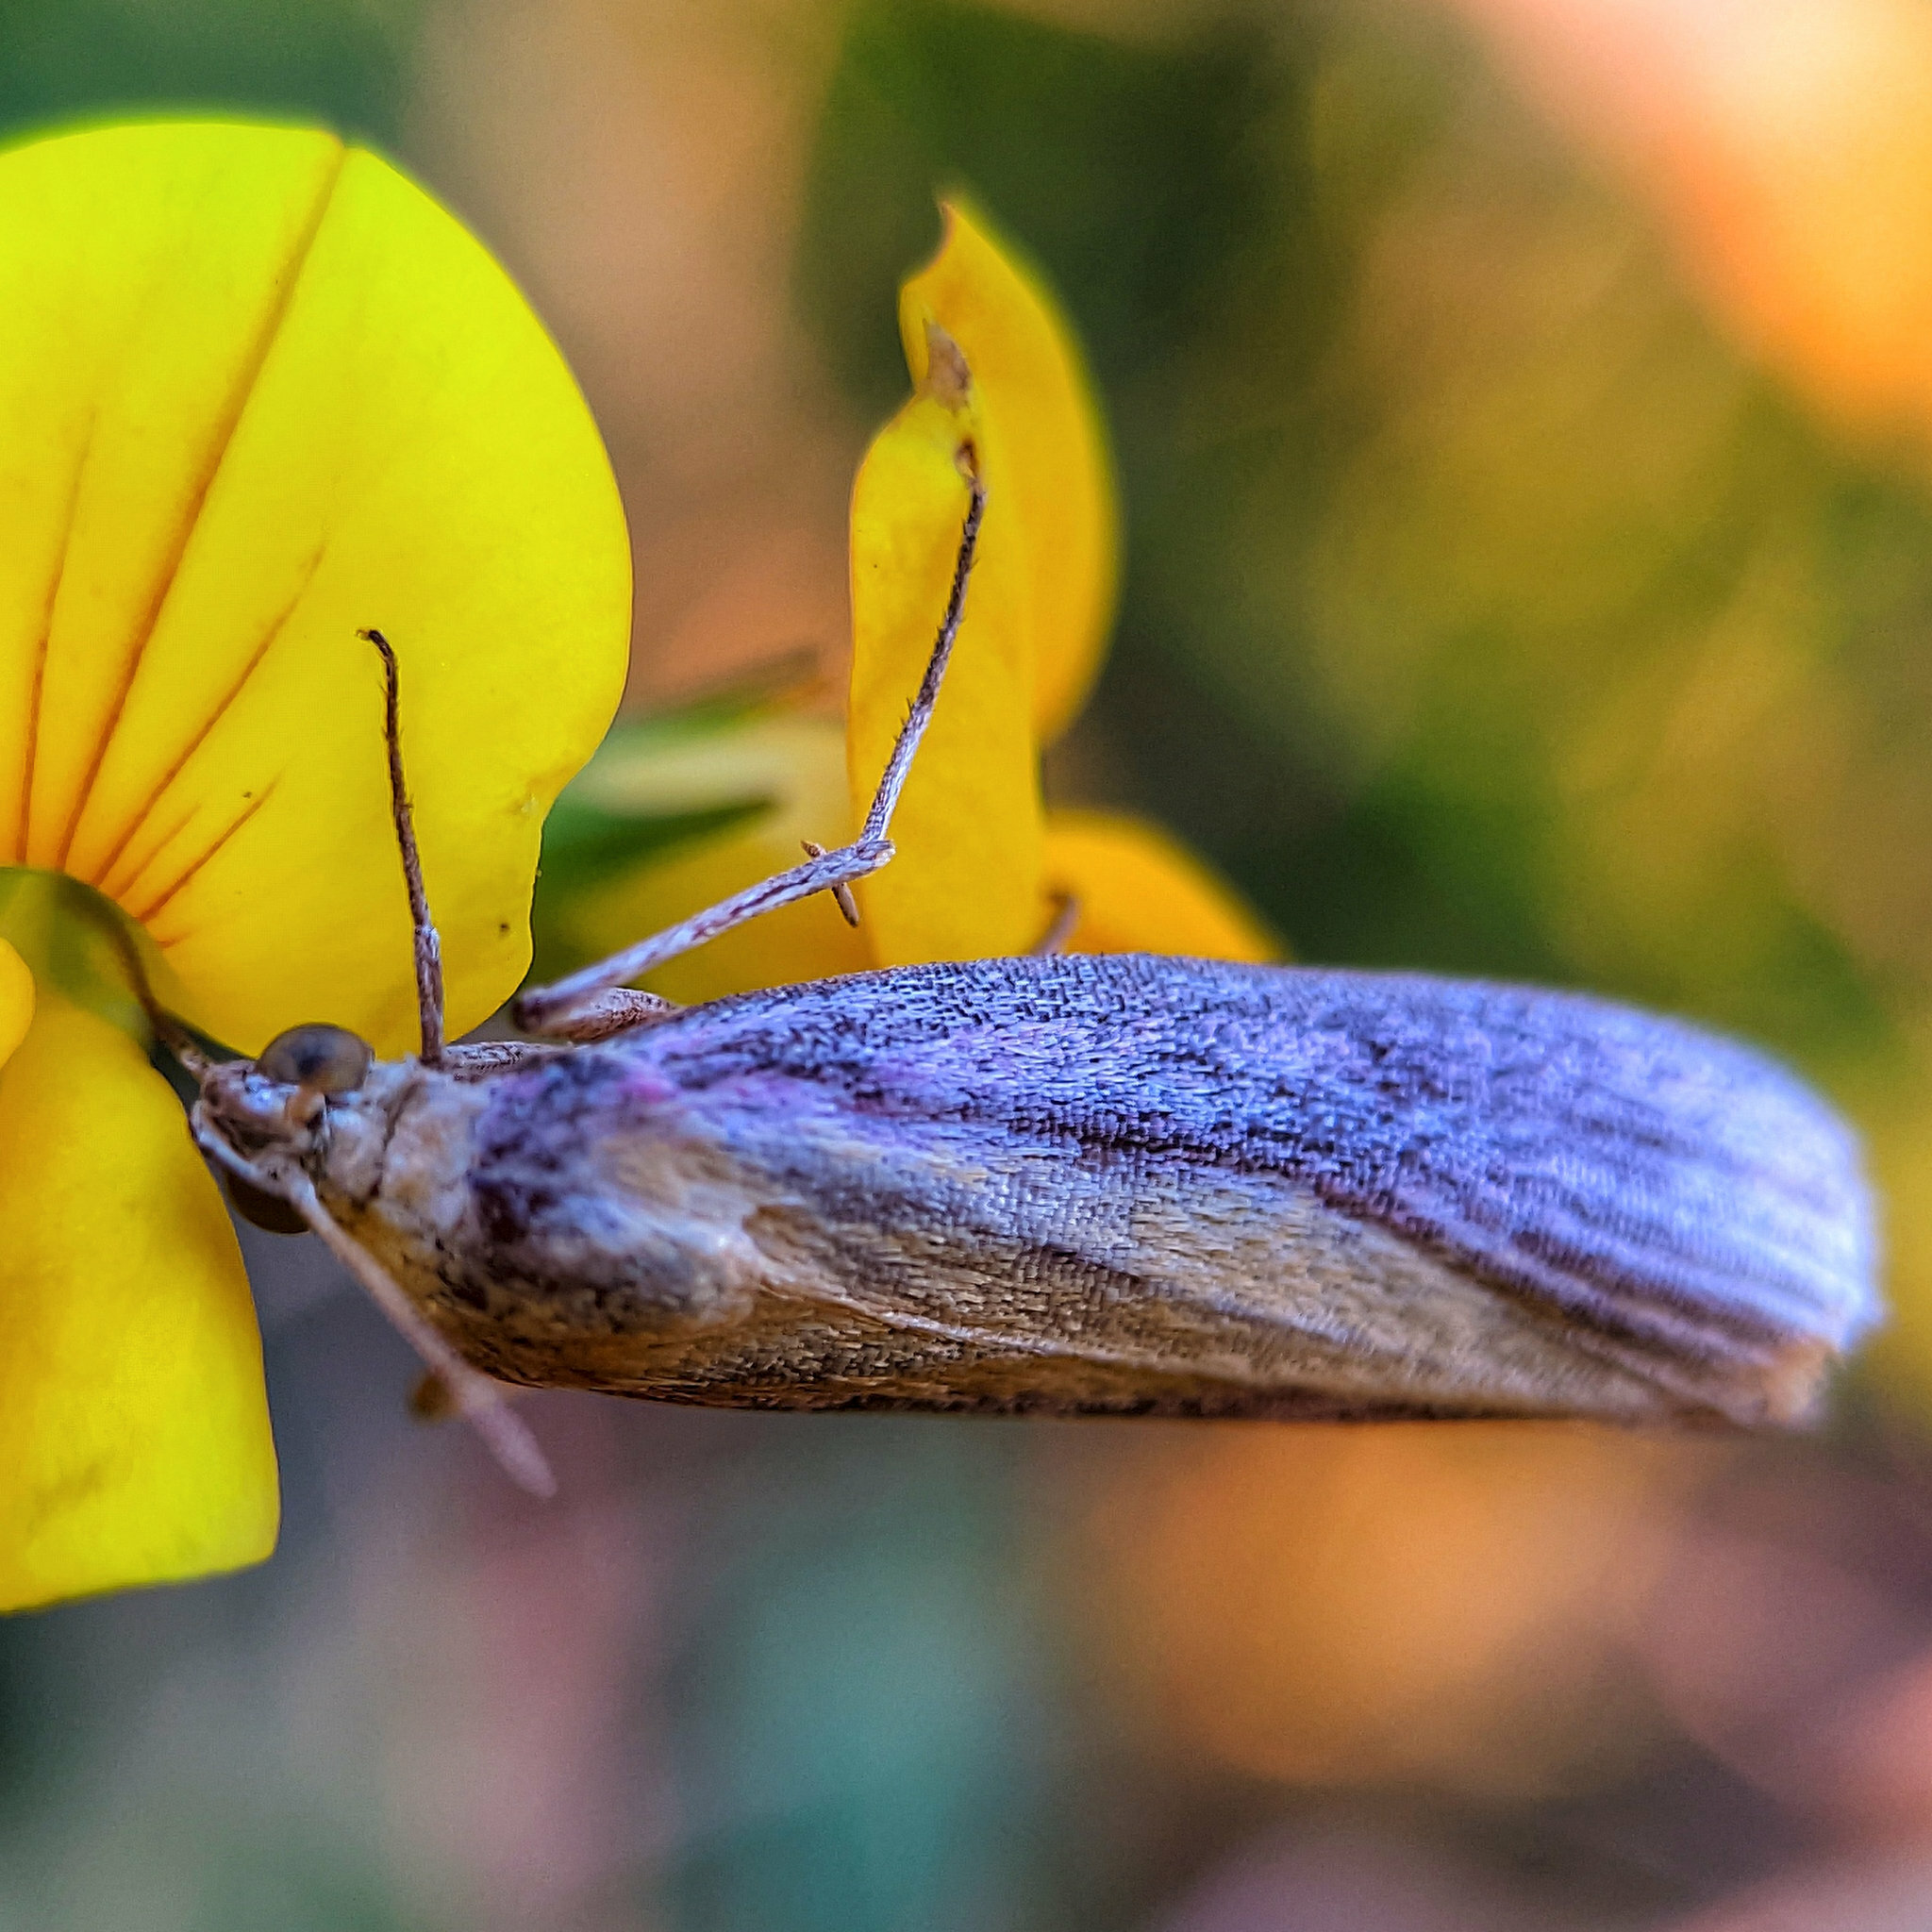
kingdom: Animalia
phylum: Arthropoda
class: Insecta
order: Lepidoptera
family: Pyralidae
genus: Oncocera
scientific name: Oncocera semirubella
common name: Rosy-striped knot-horn
